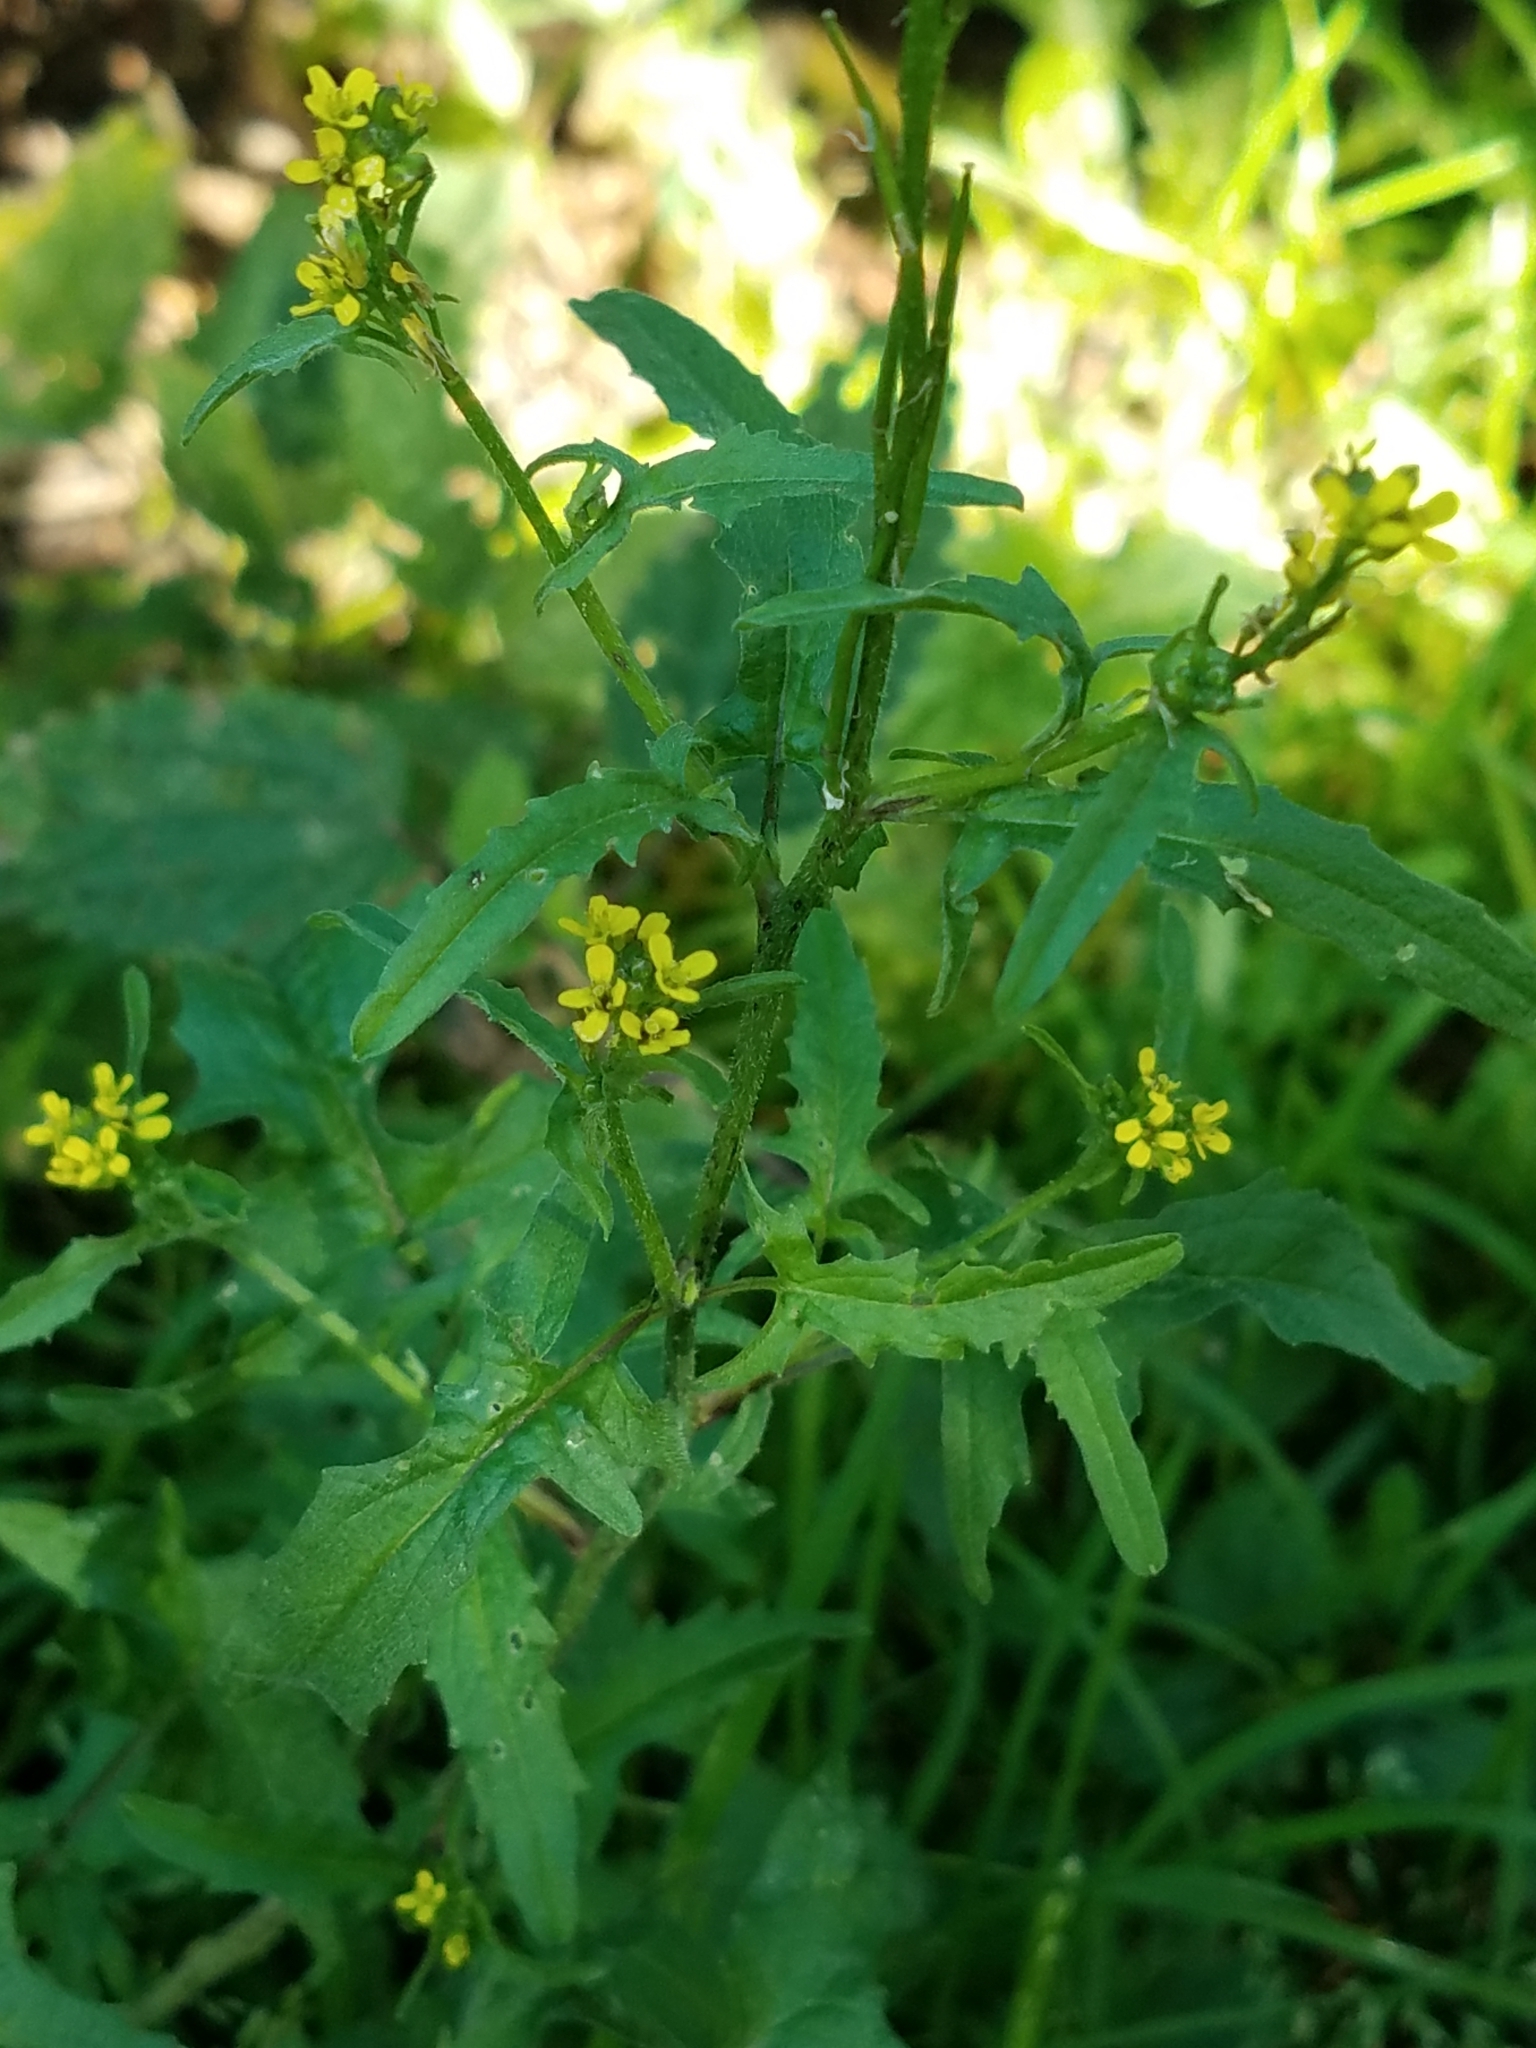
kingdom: Plantae
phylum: Tracheophyta
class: Magnoliopsida
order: Brassicales
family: Brassicaceae
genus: Sisymbrium
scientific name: Sisymbrium officinale
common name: Hedge mustard
